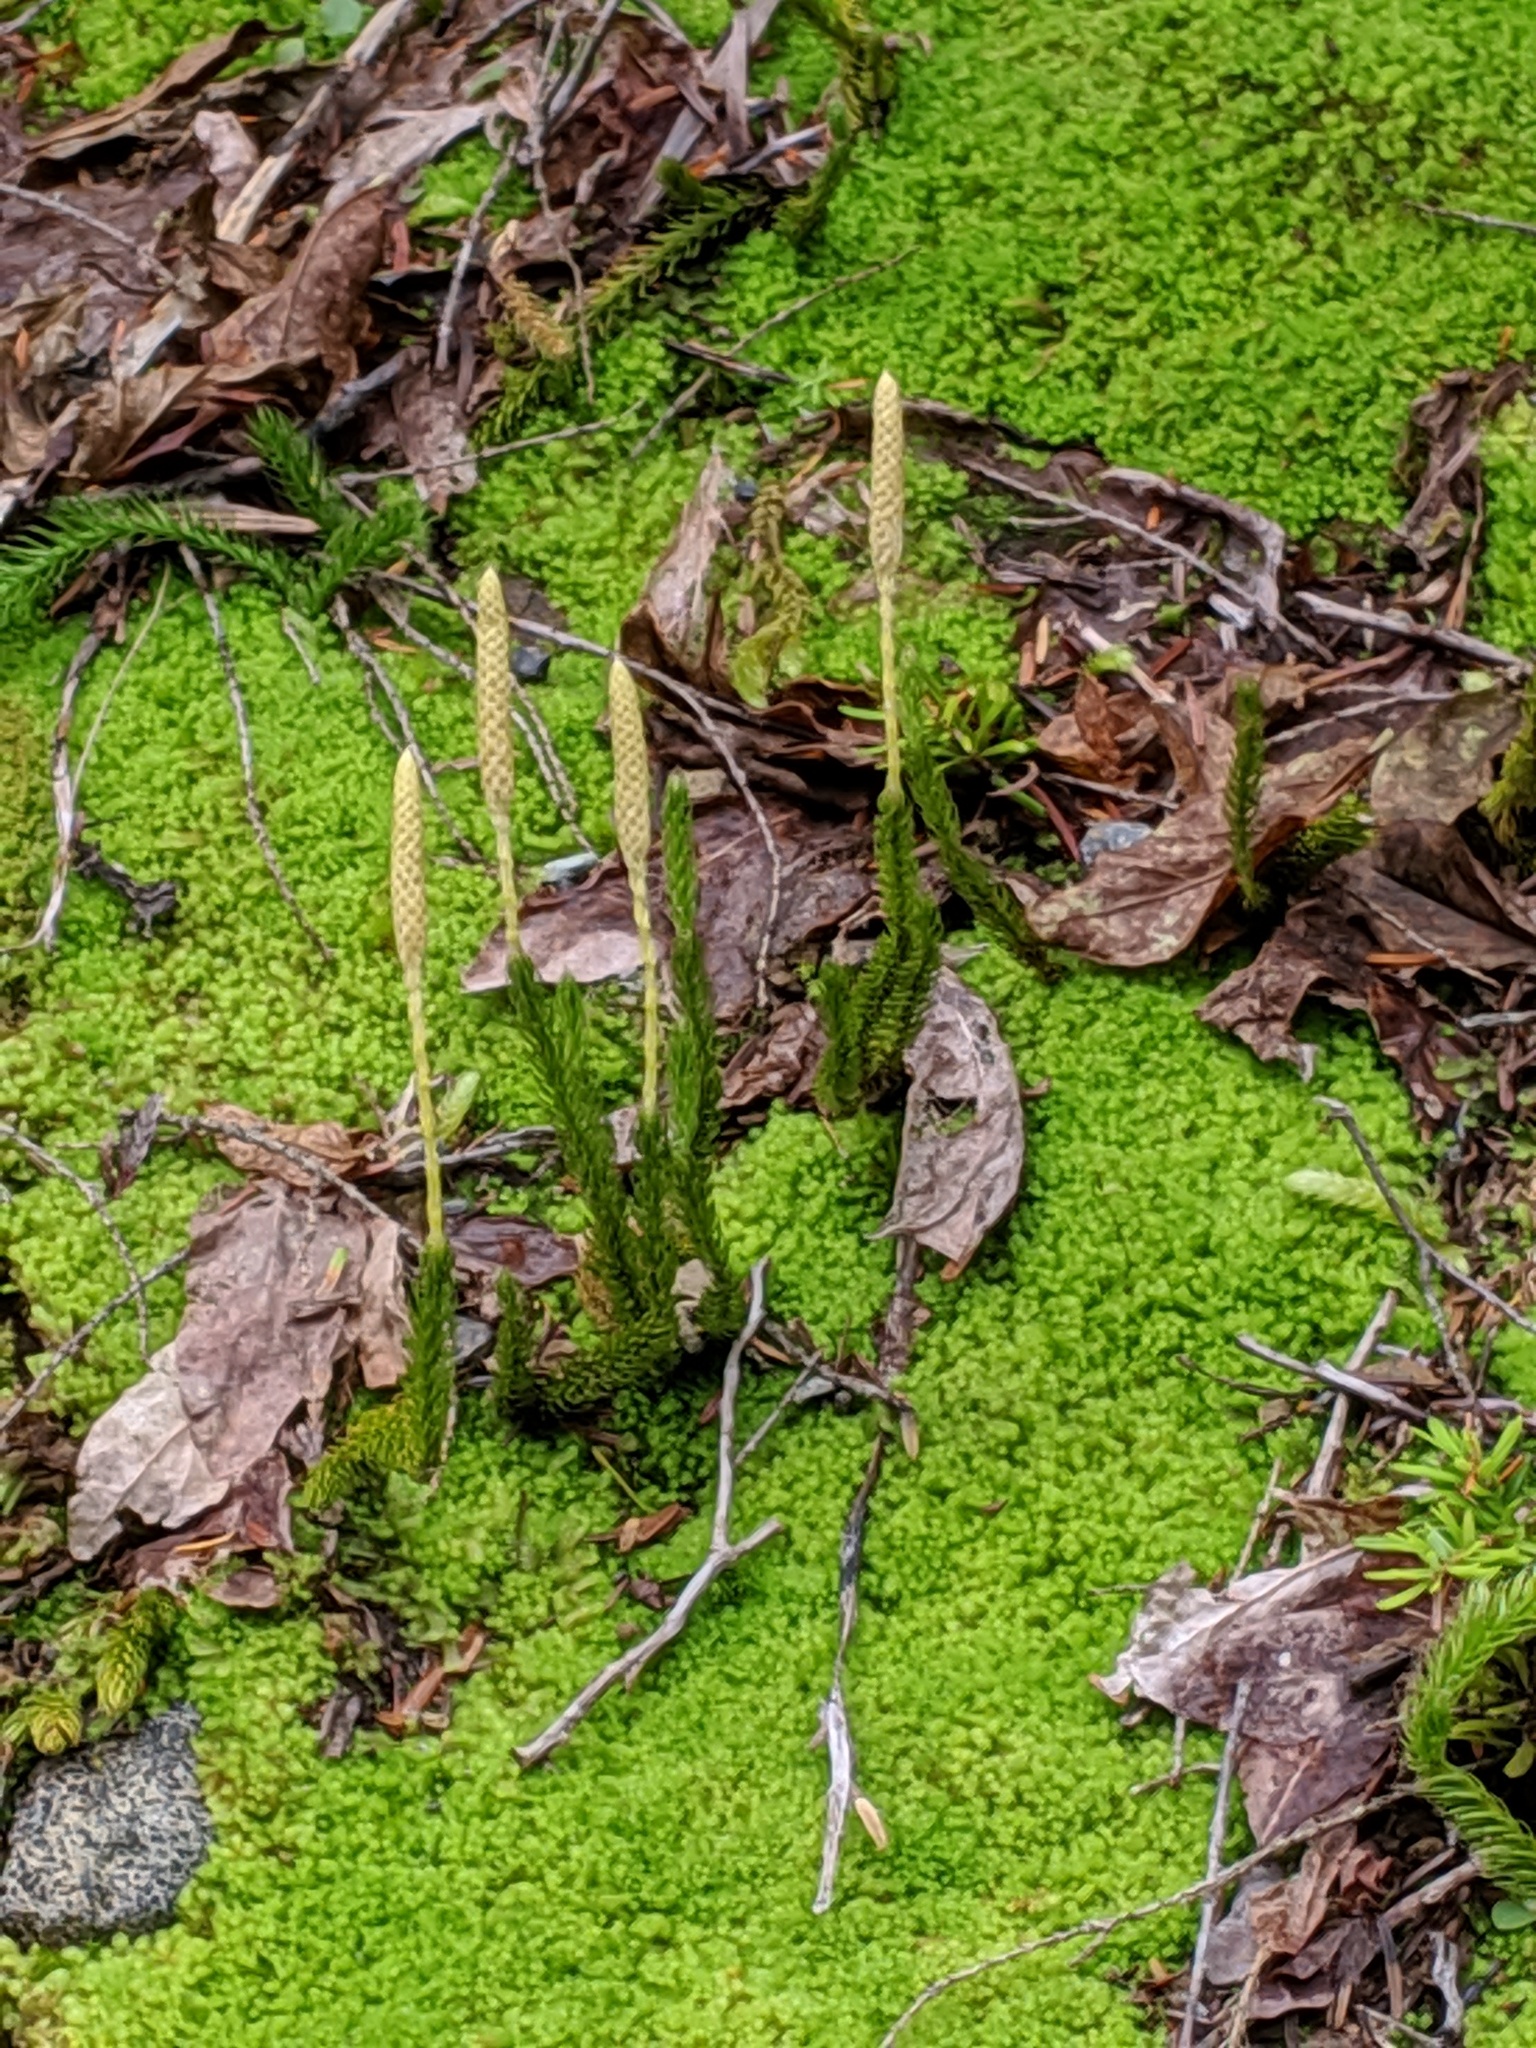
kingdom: Plantae
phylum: Tracheophyta
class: Lycopodiopsida
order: Lycopodiales
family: Lycopodiaceae
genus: Lycopodium
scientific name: Lycopodium lagopus
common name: One-cone clubmoss
